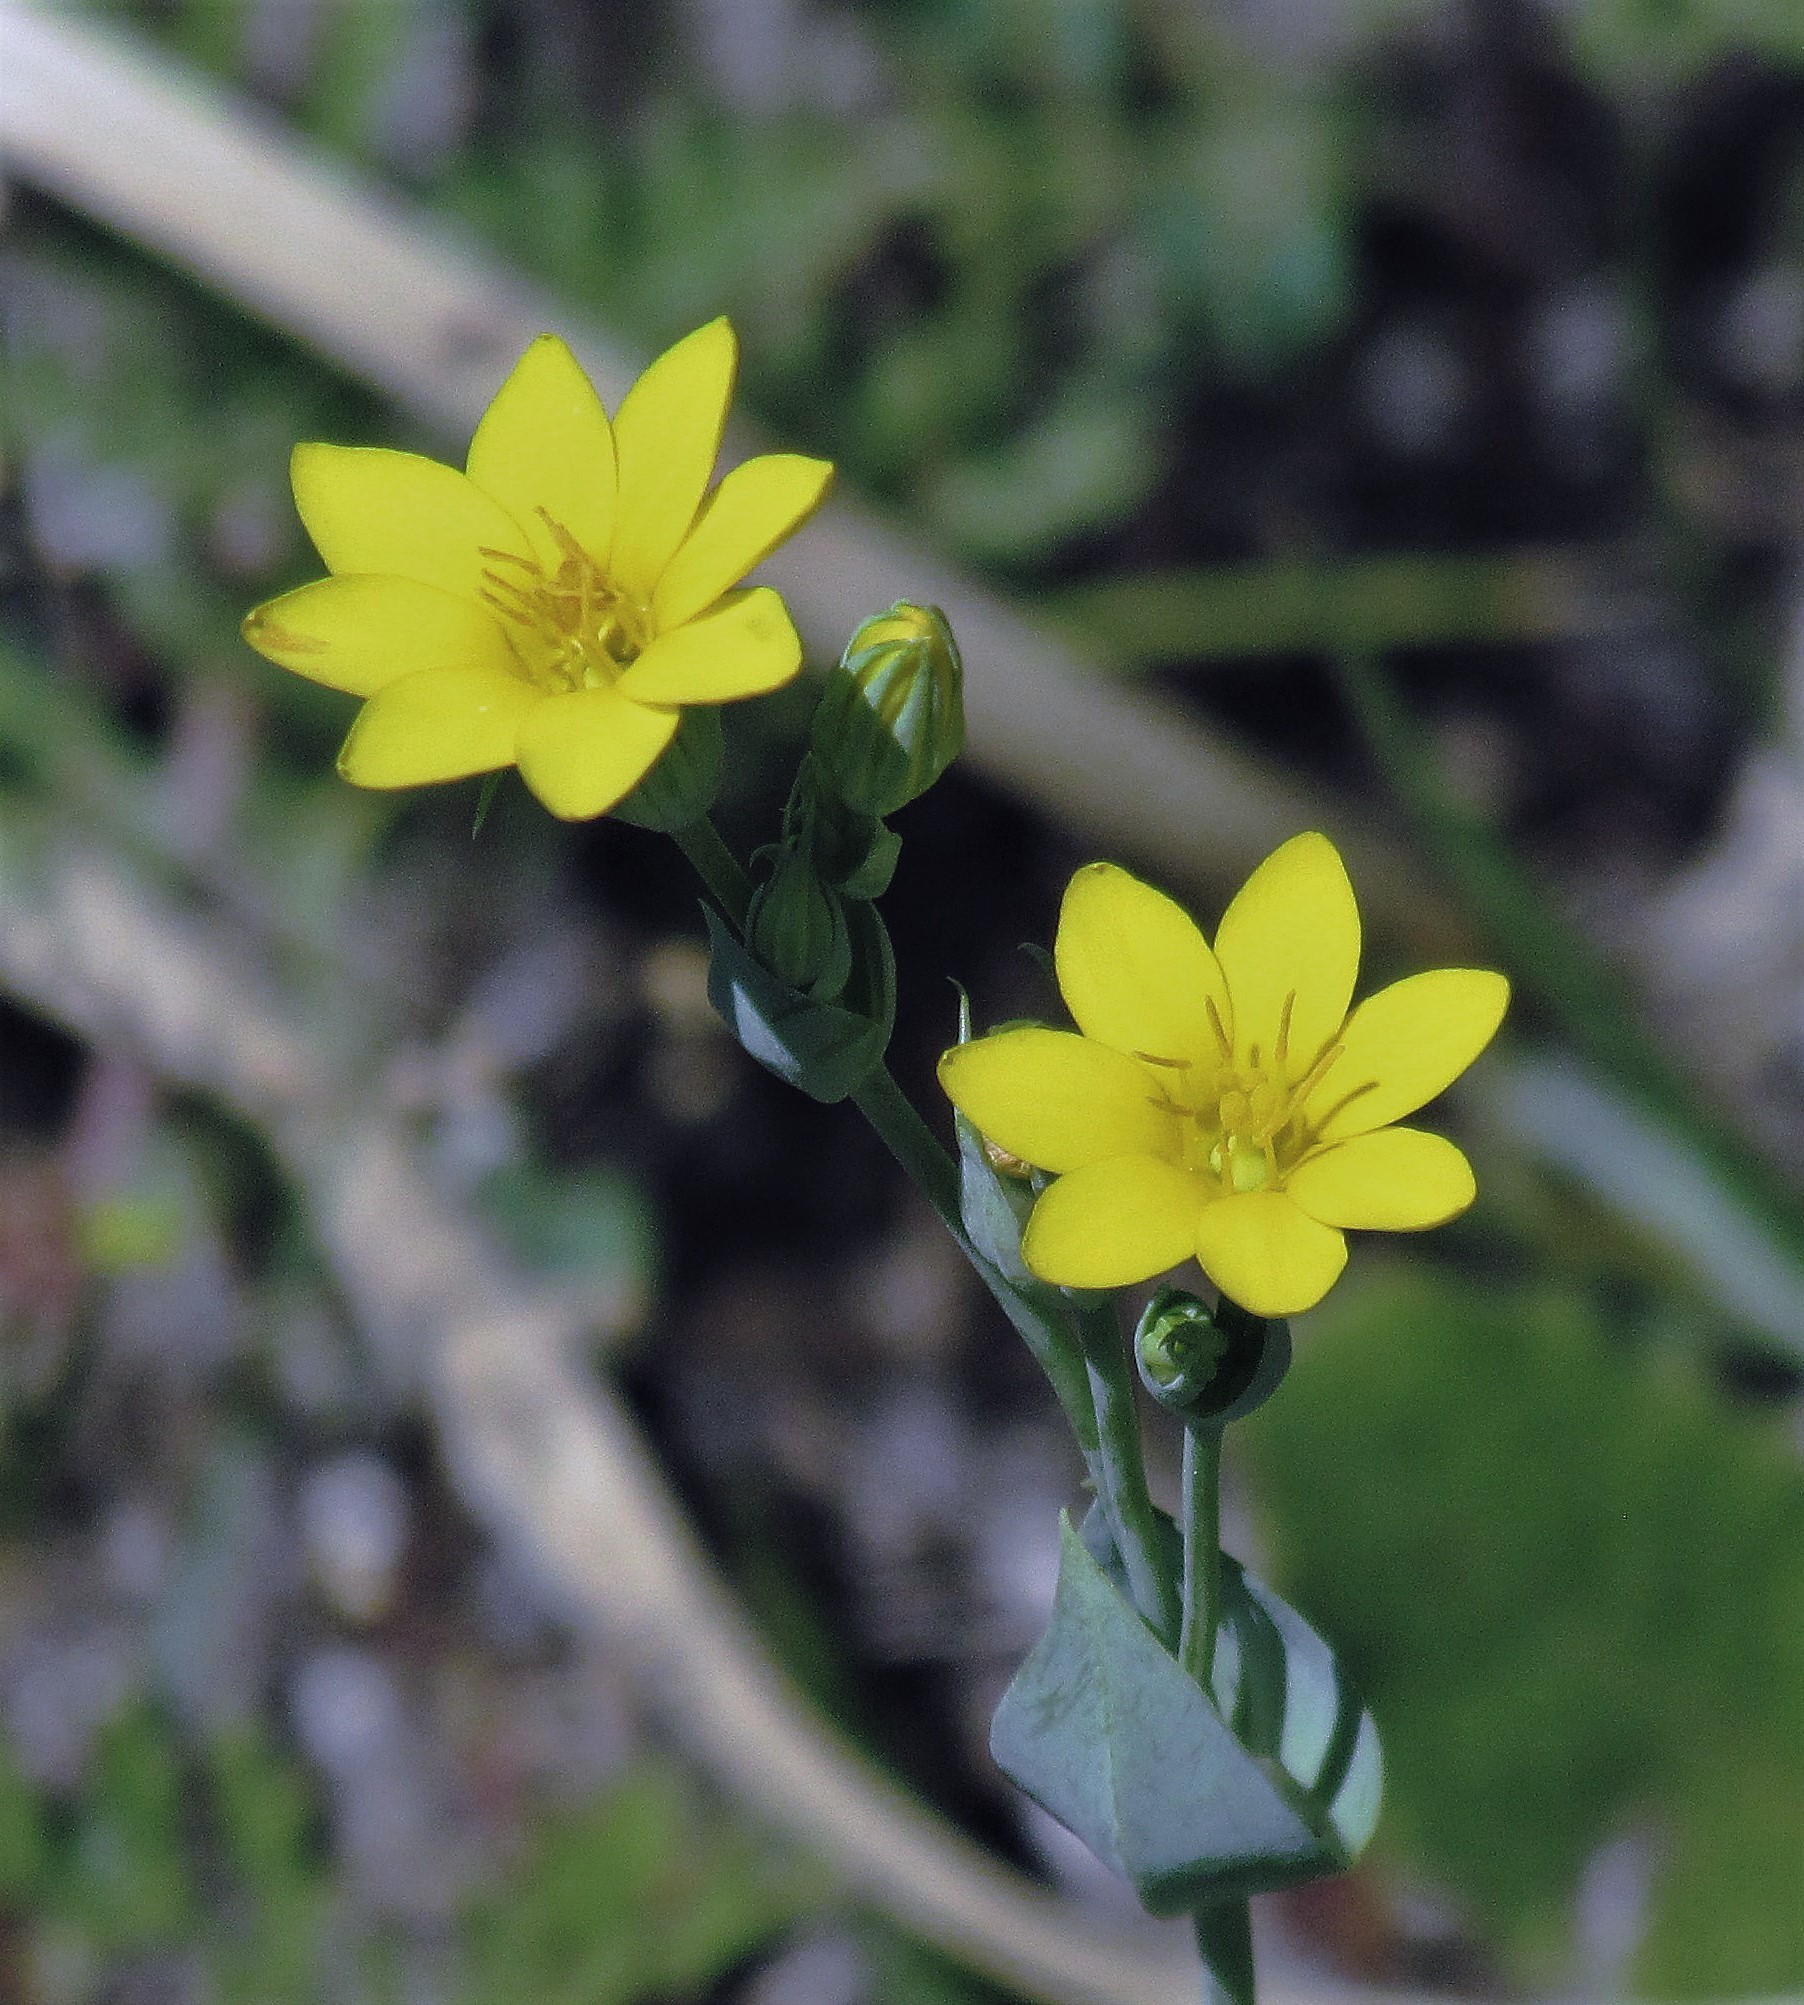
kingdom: Plantae
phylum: Tracheophyta
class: Magnoliopsida
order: Gentianales
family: Gentianaceae
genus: Blackstonia
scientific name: Blackstonia perfoliata
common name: Yellow-wort
